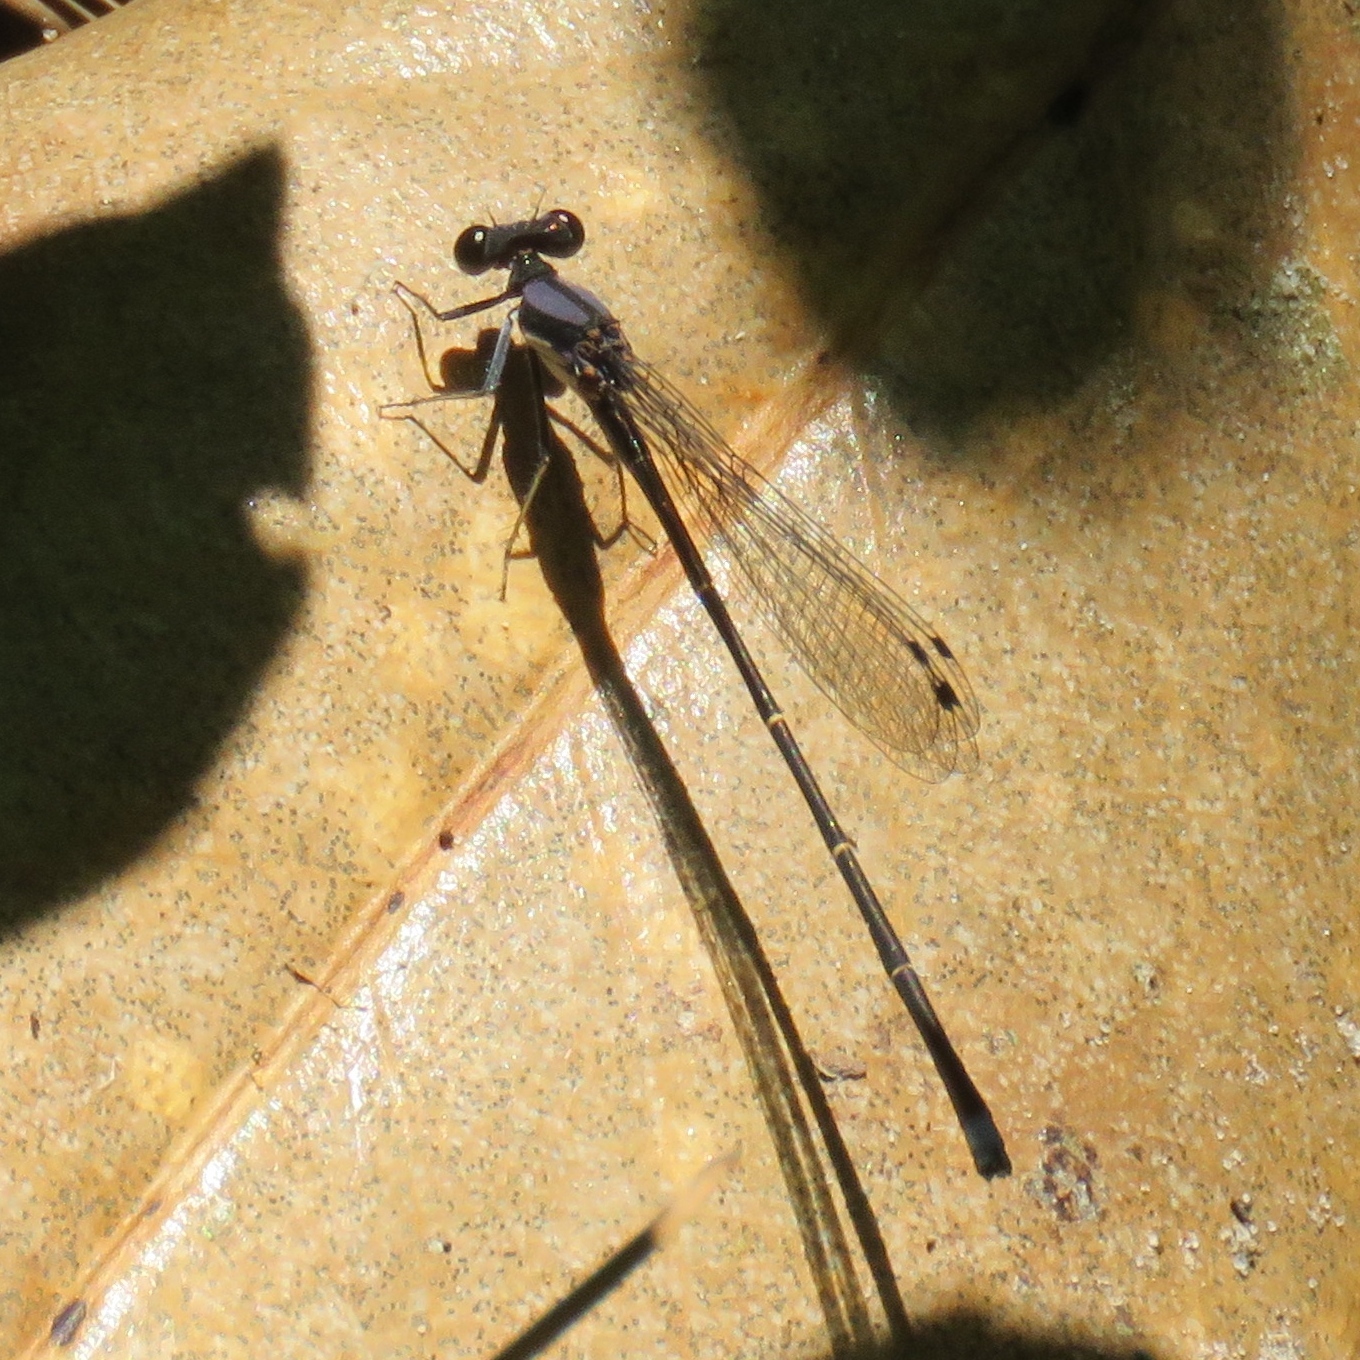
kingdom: Animalia
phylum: Arthropoda
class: Insecta
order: Odonata
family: Coenagrionidae
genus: Argia
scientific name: Argia tibialis
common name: Blue-tipped dancer
